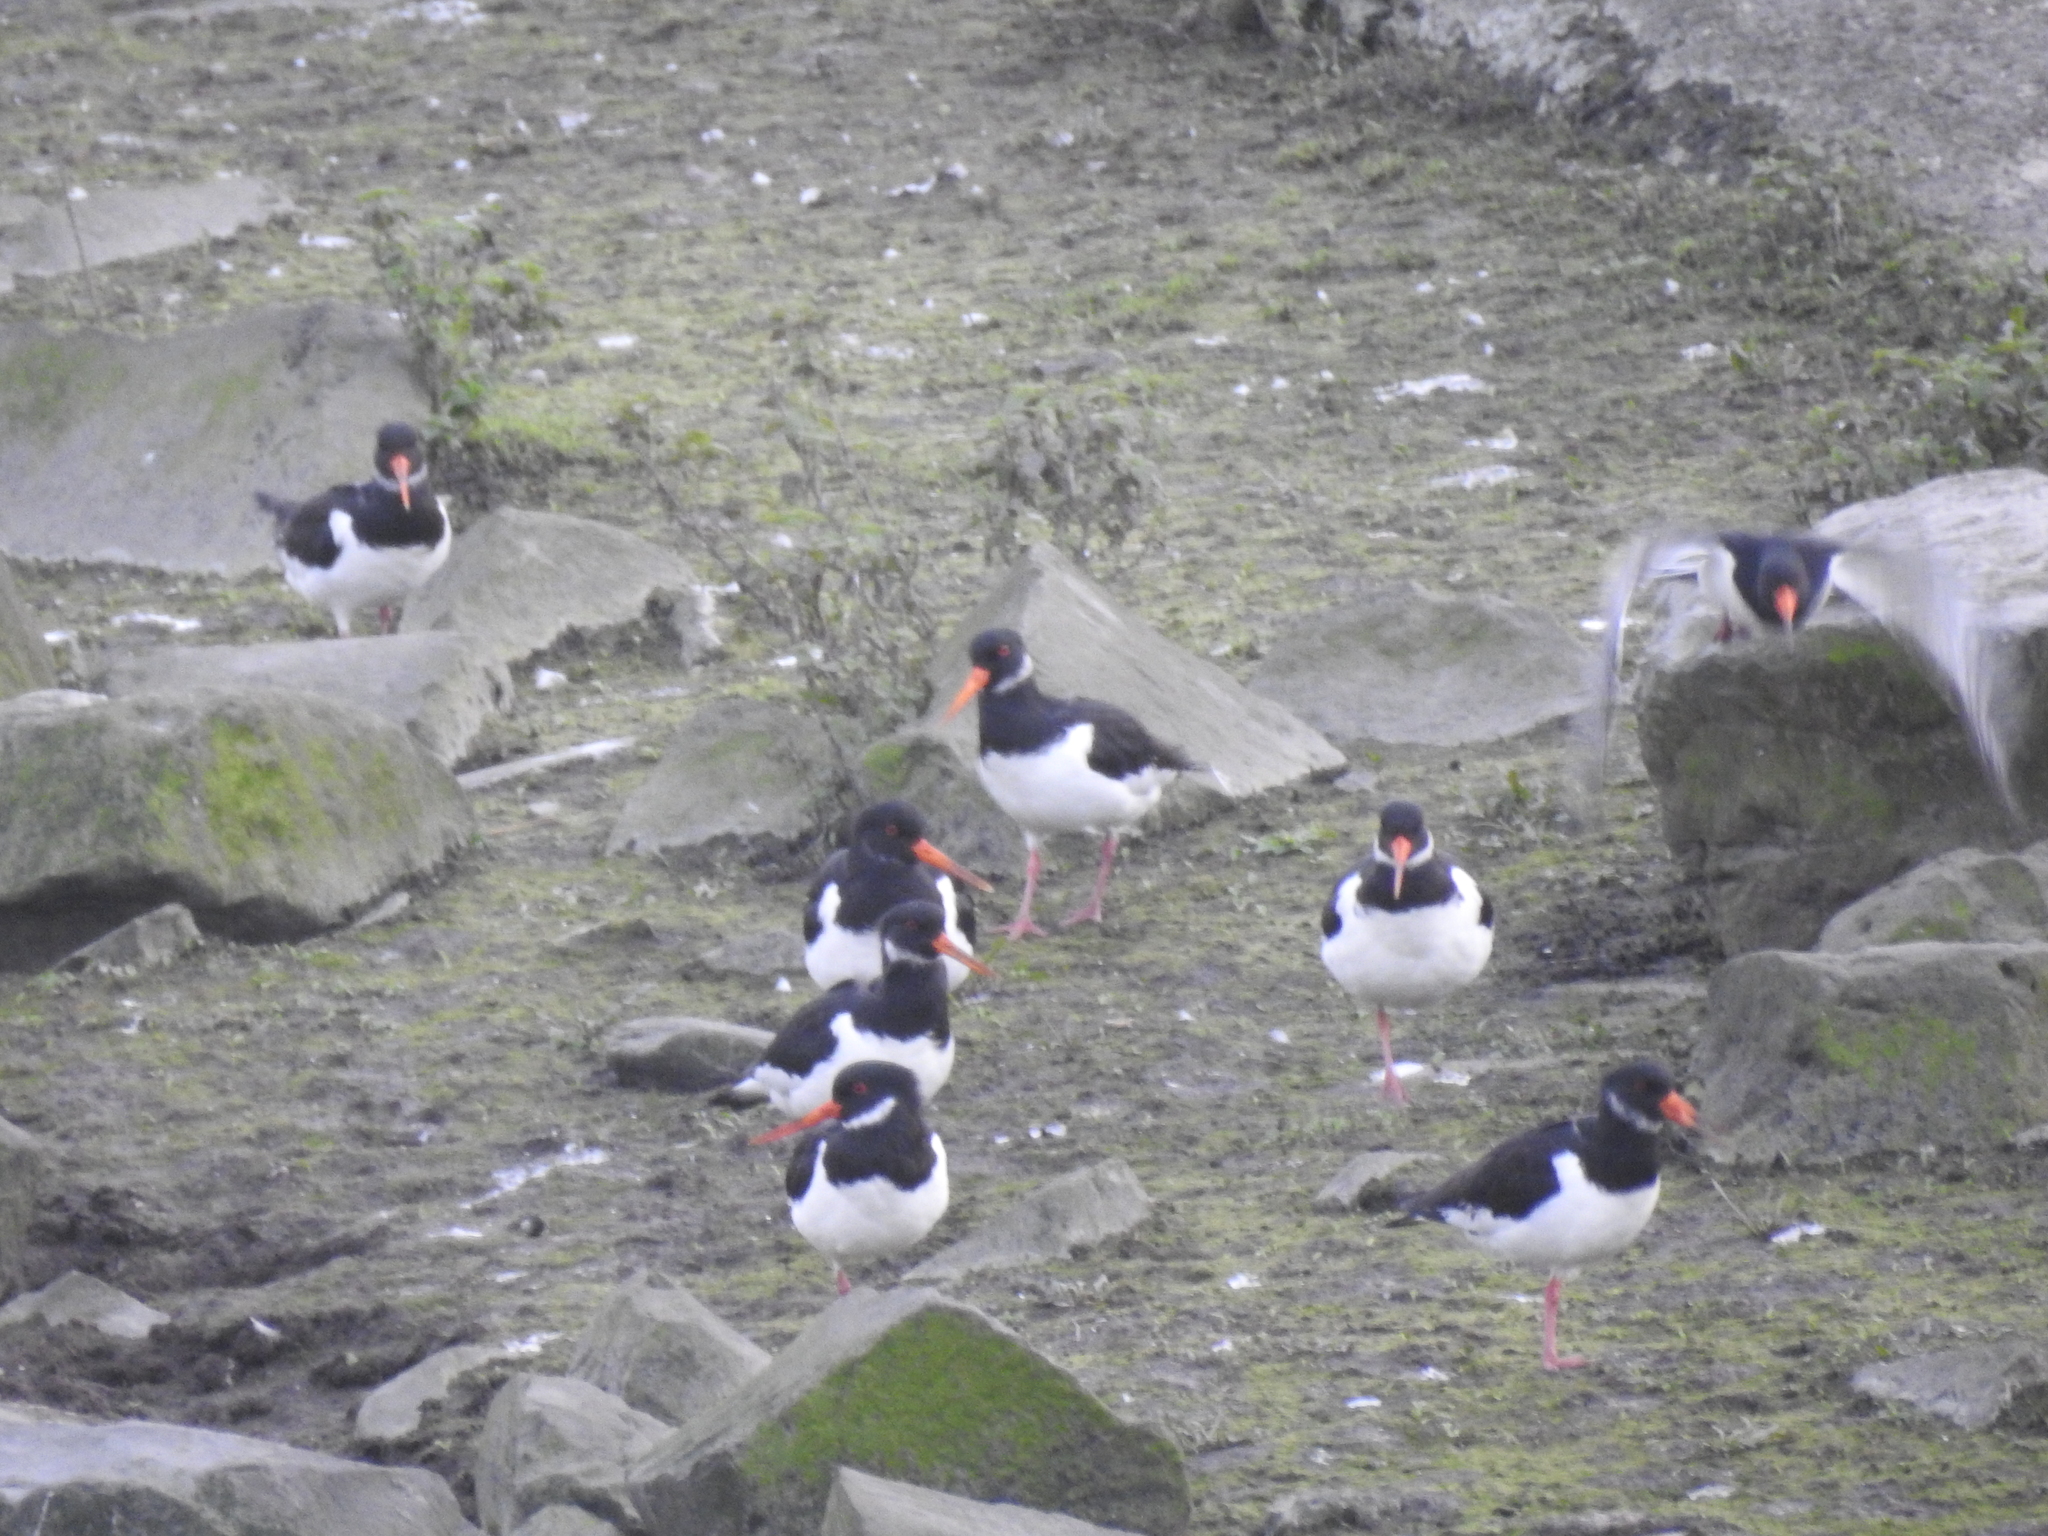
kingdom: Animalia
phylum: Chordata
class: Aves
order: Charadriiformes
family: Haematopodidae
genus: Haematopus
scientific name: Haematopus ostralegus
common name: Eurasian oystercatcher
